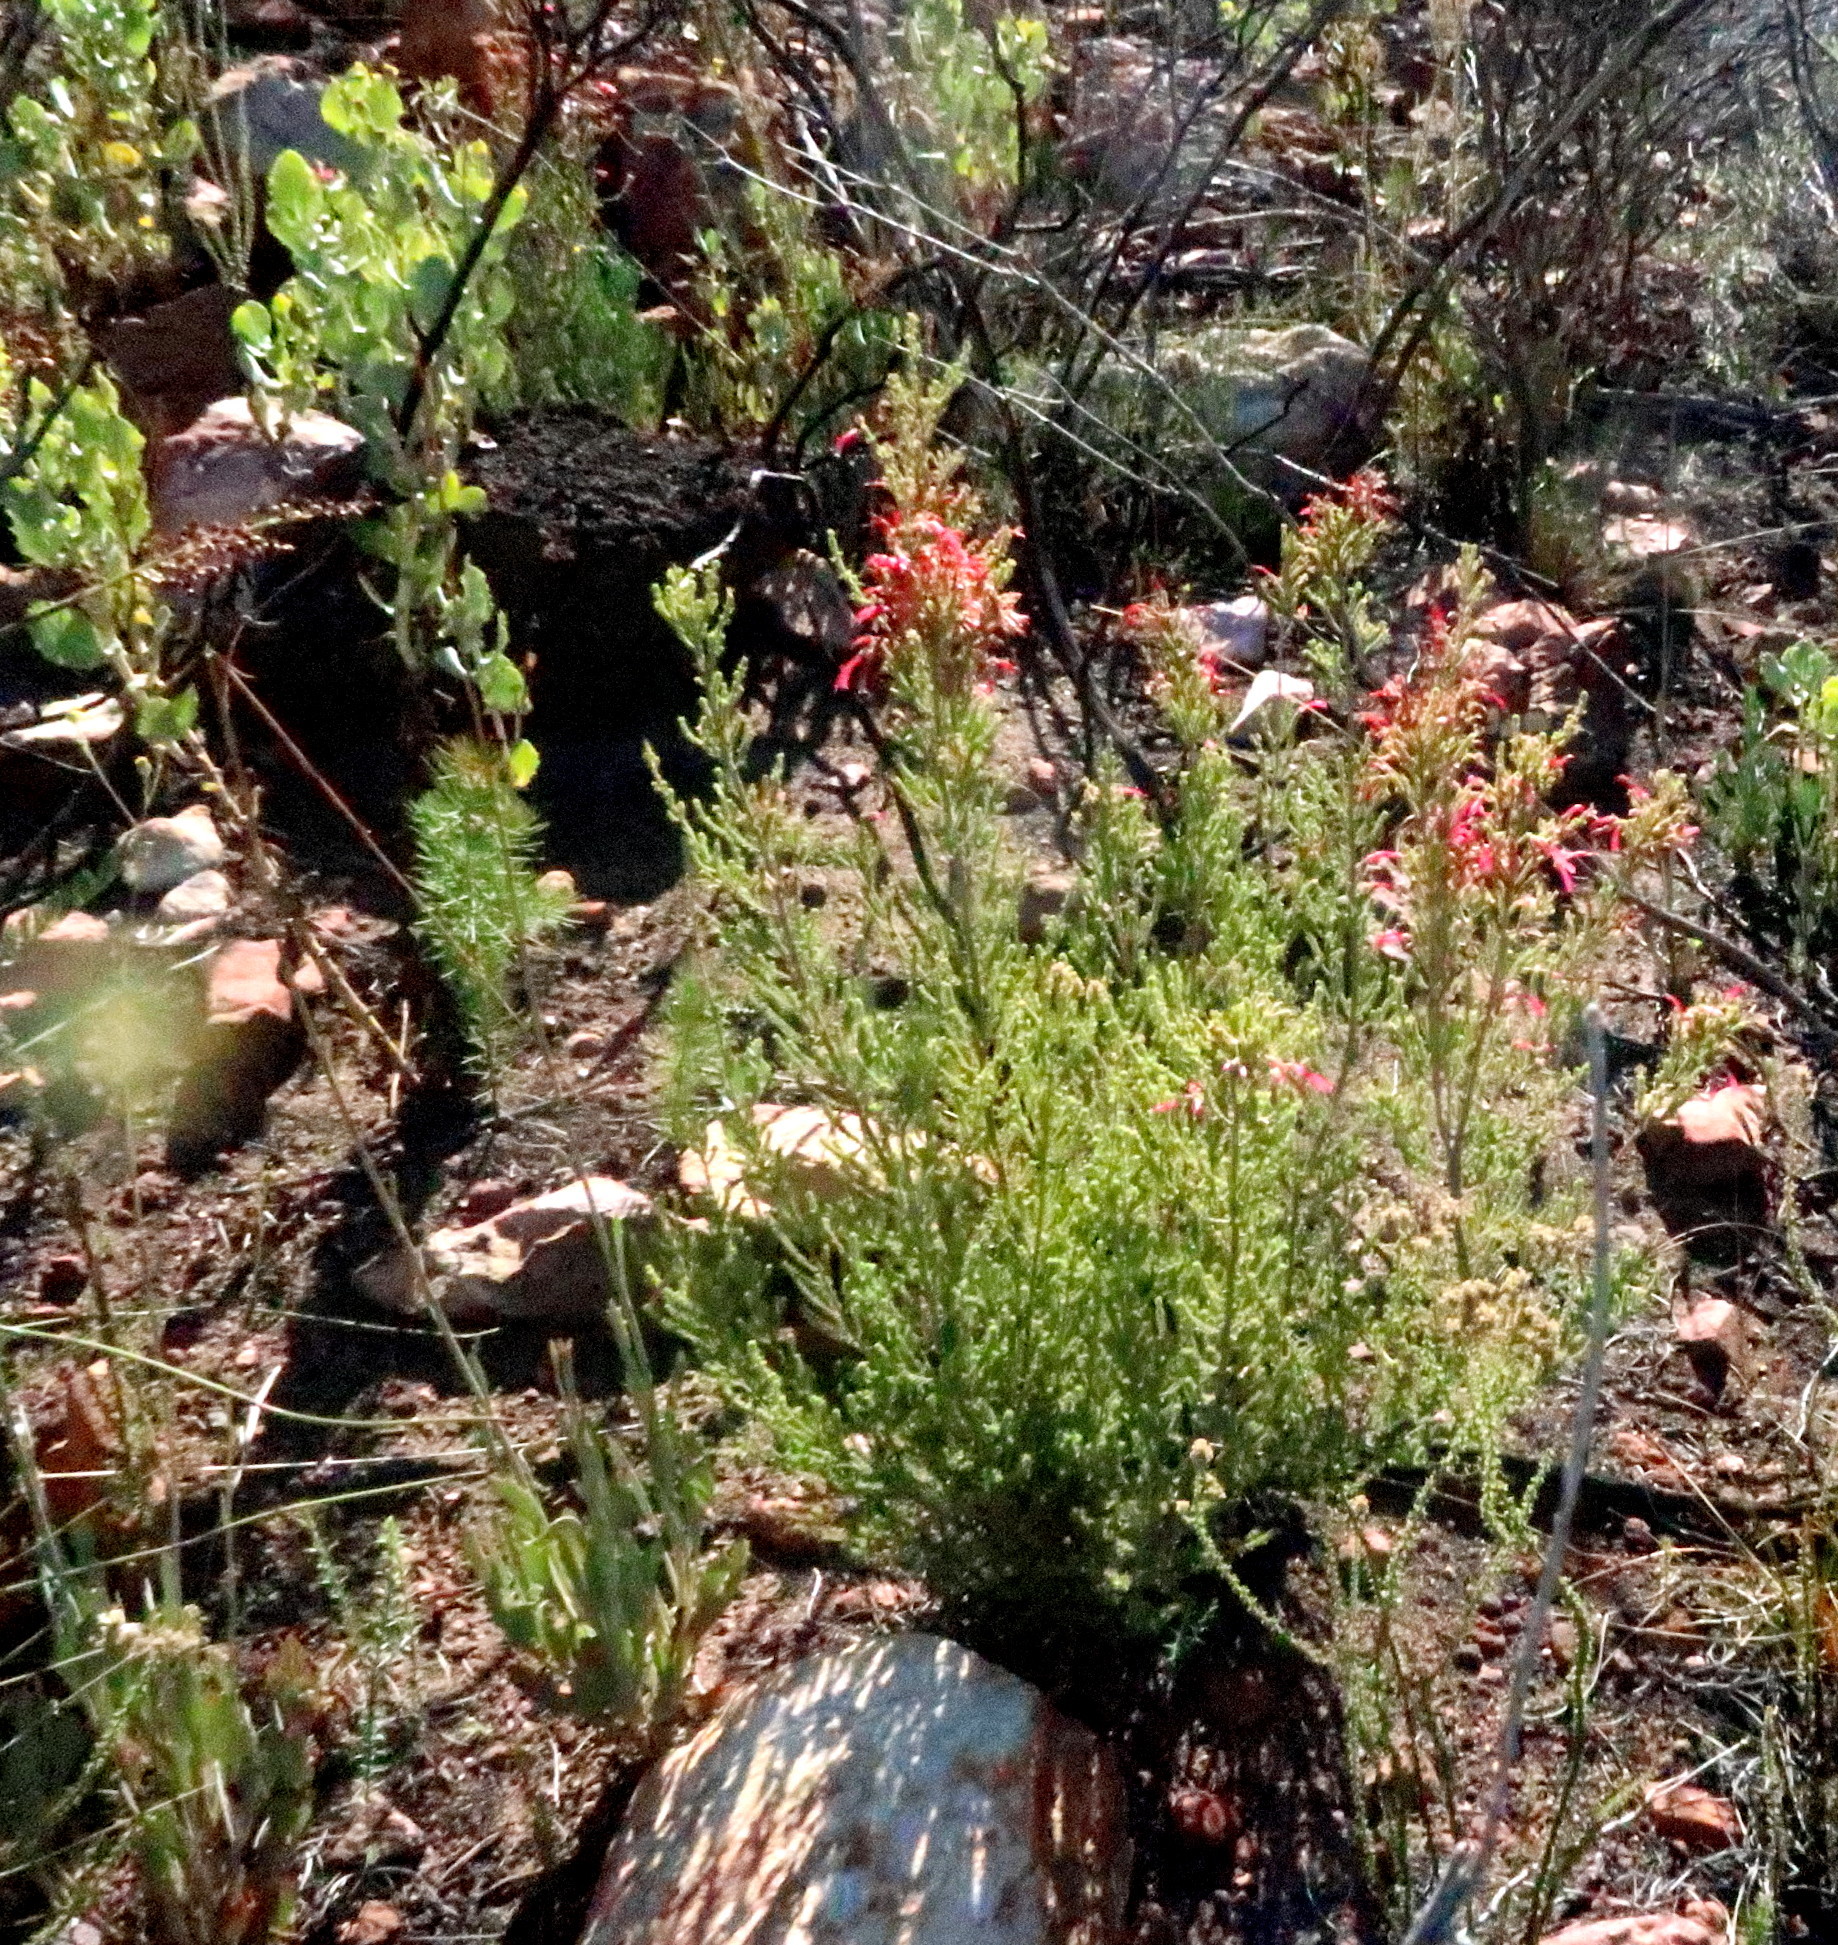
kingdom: Plantae
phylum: Tracheophyta
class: Magnoliopsida
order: Ericales
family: Ericaceae
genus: Erica
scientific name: Erica discolor
